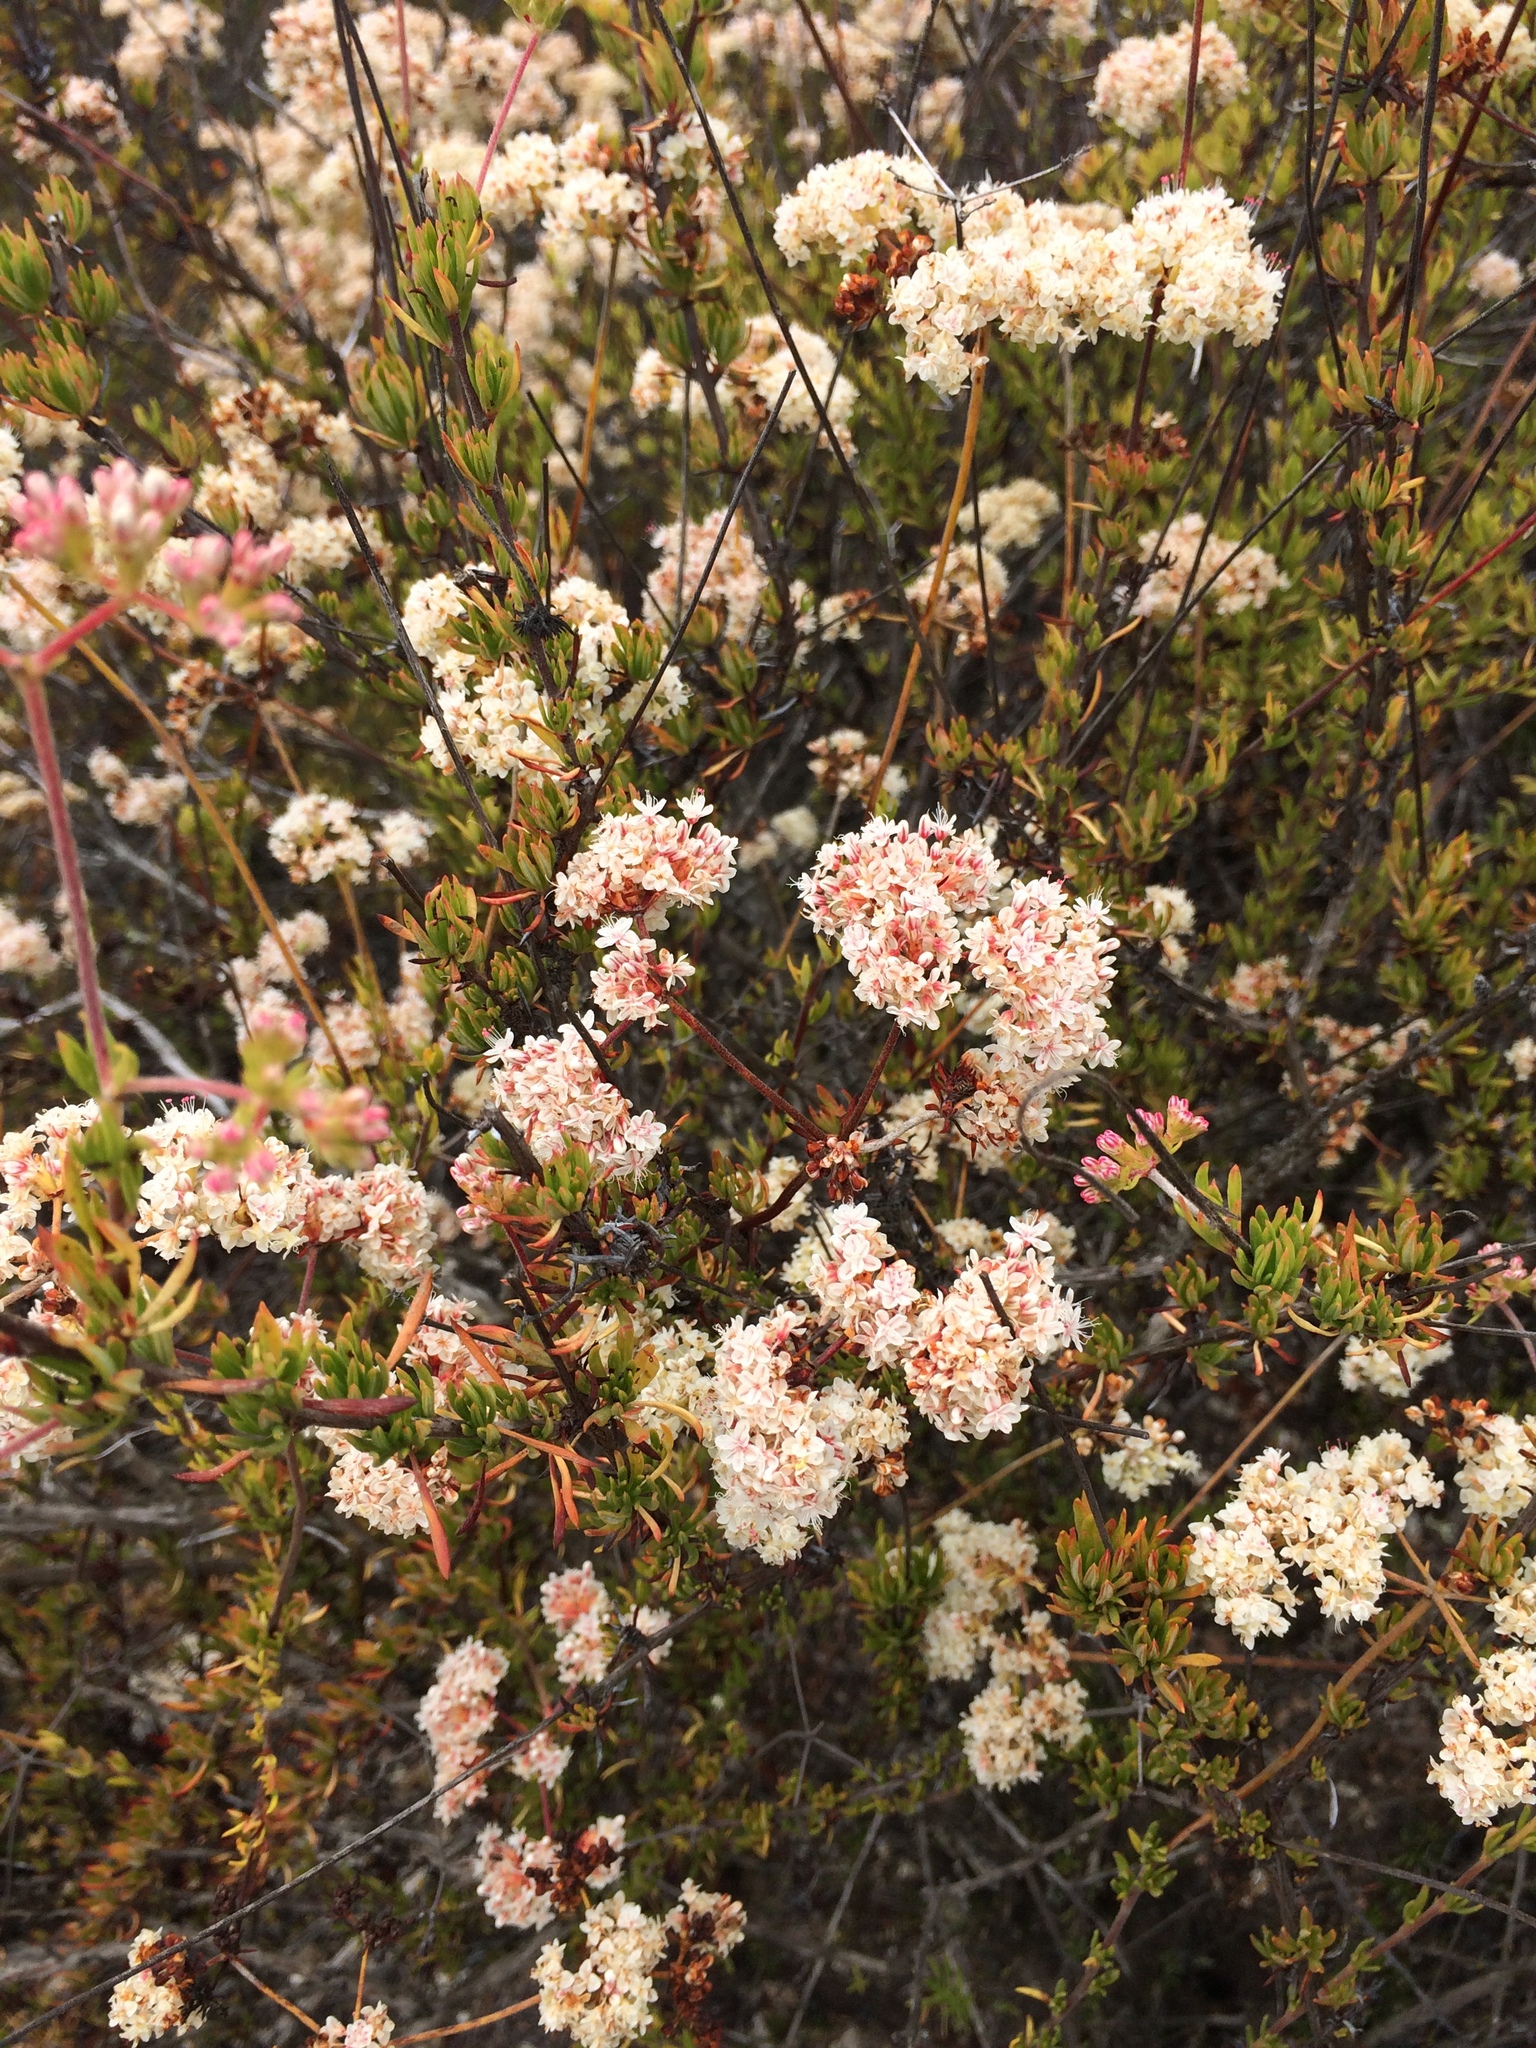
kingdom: Plantae
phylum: Tracheophyta
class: Magnoliopsida
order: Caryophyllales
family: Polygonaceae
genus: Eriogonum
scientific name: Eriogonum fasciculatum
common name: California wild buckwheat
